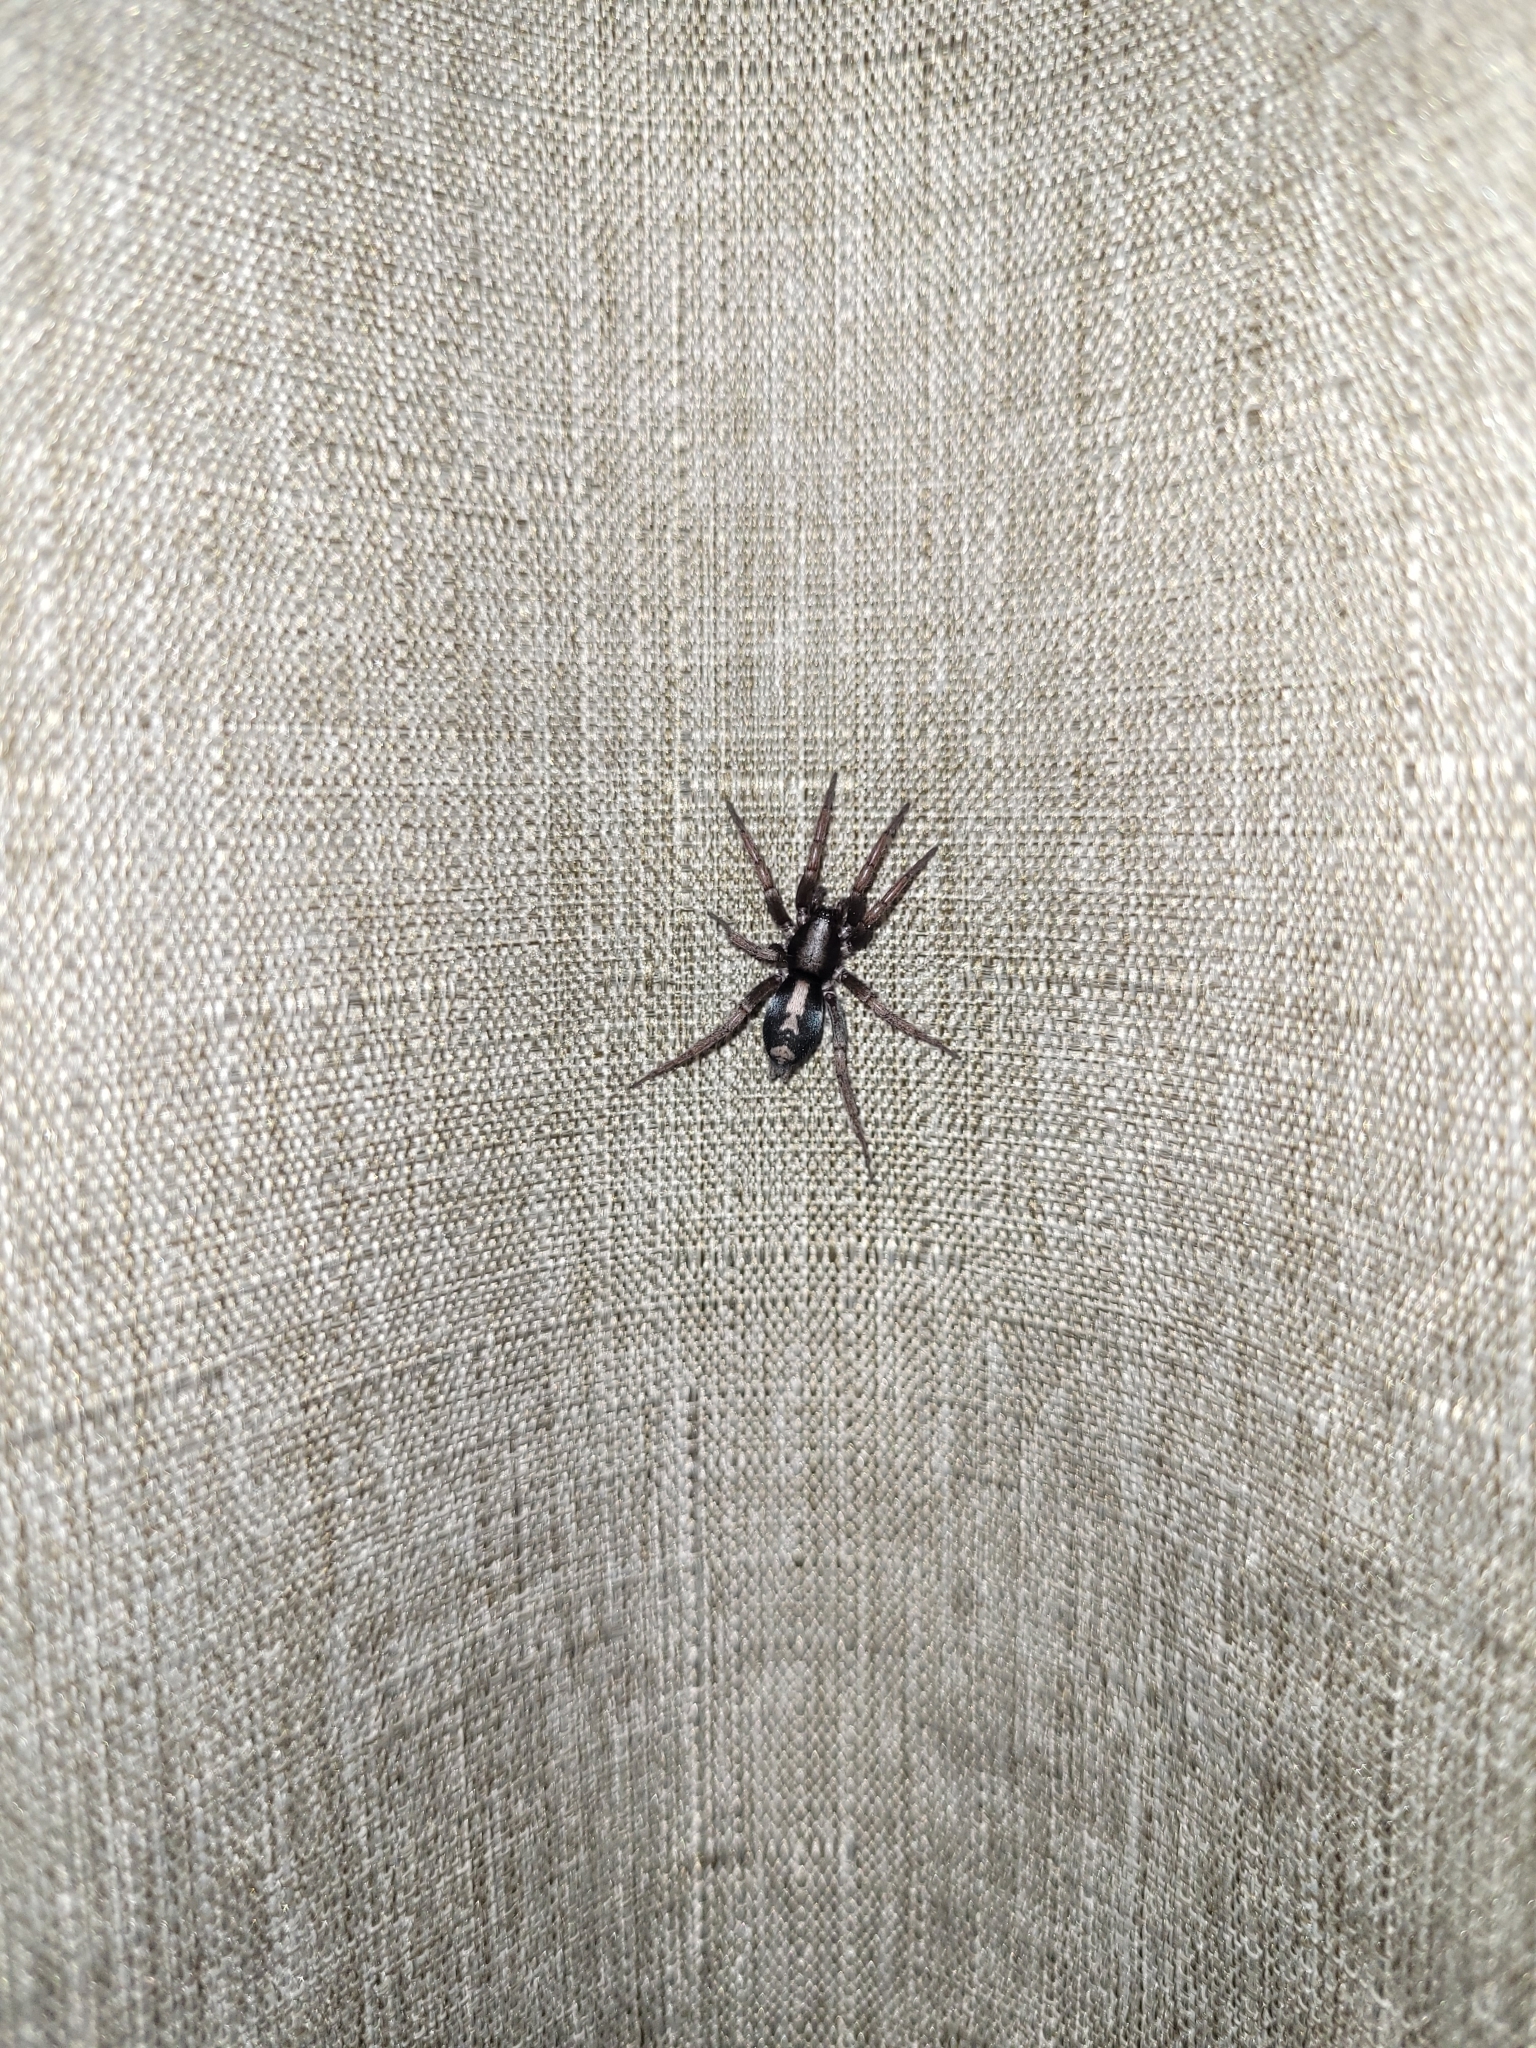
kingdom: Animalia
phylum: Arthropoda
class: Arachnida
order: Araneae
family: Gnaphosidae
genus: Herpyllus
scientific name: Herpyllus ecclesiasticus
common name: Eastern parson spider
